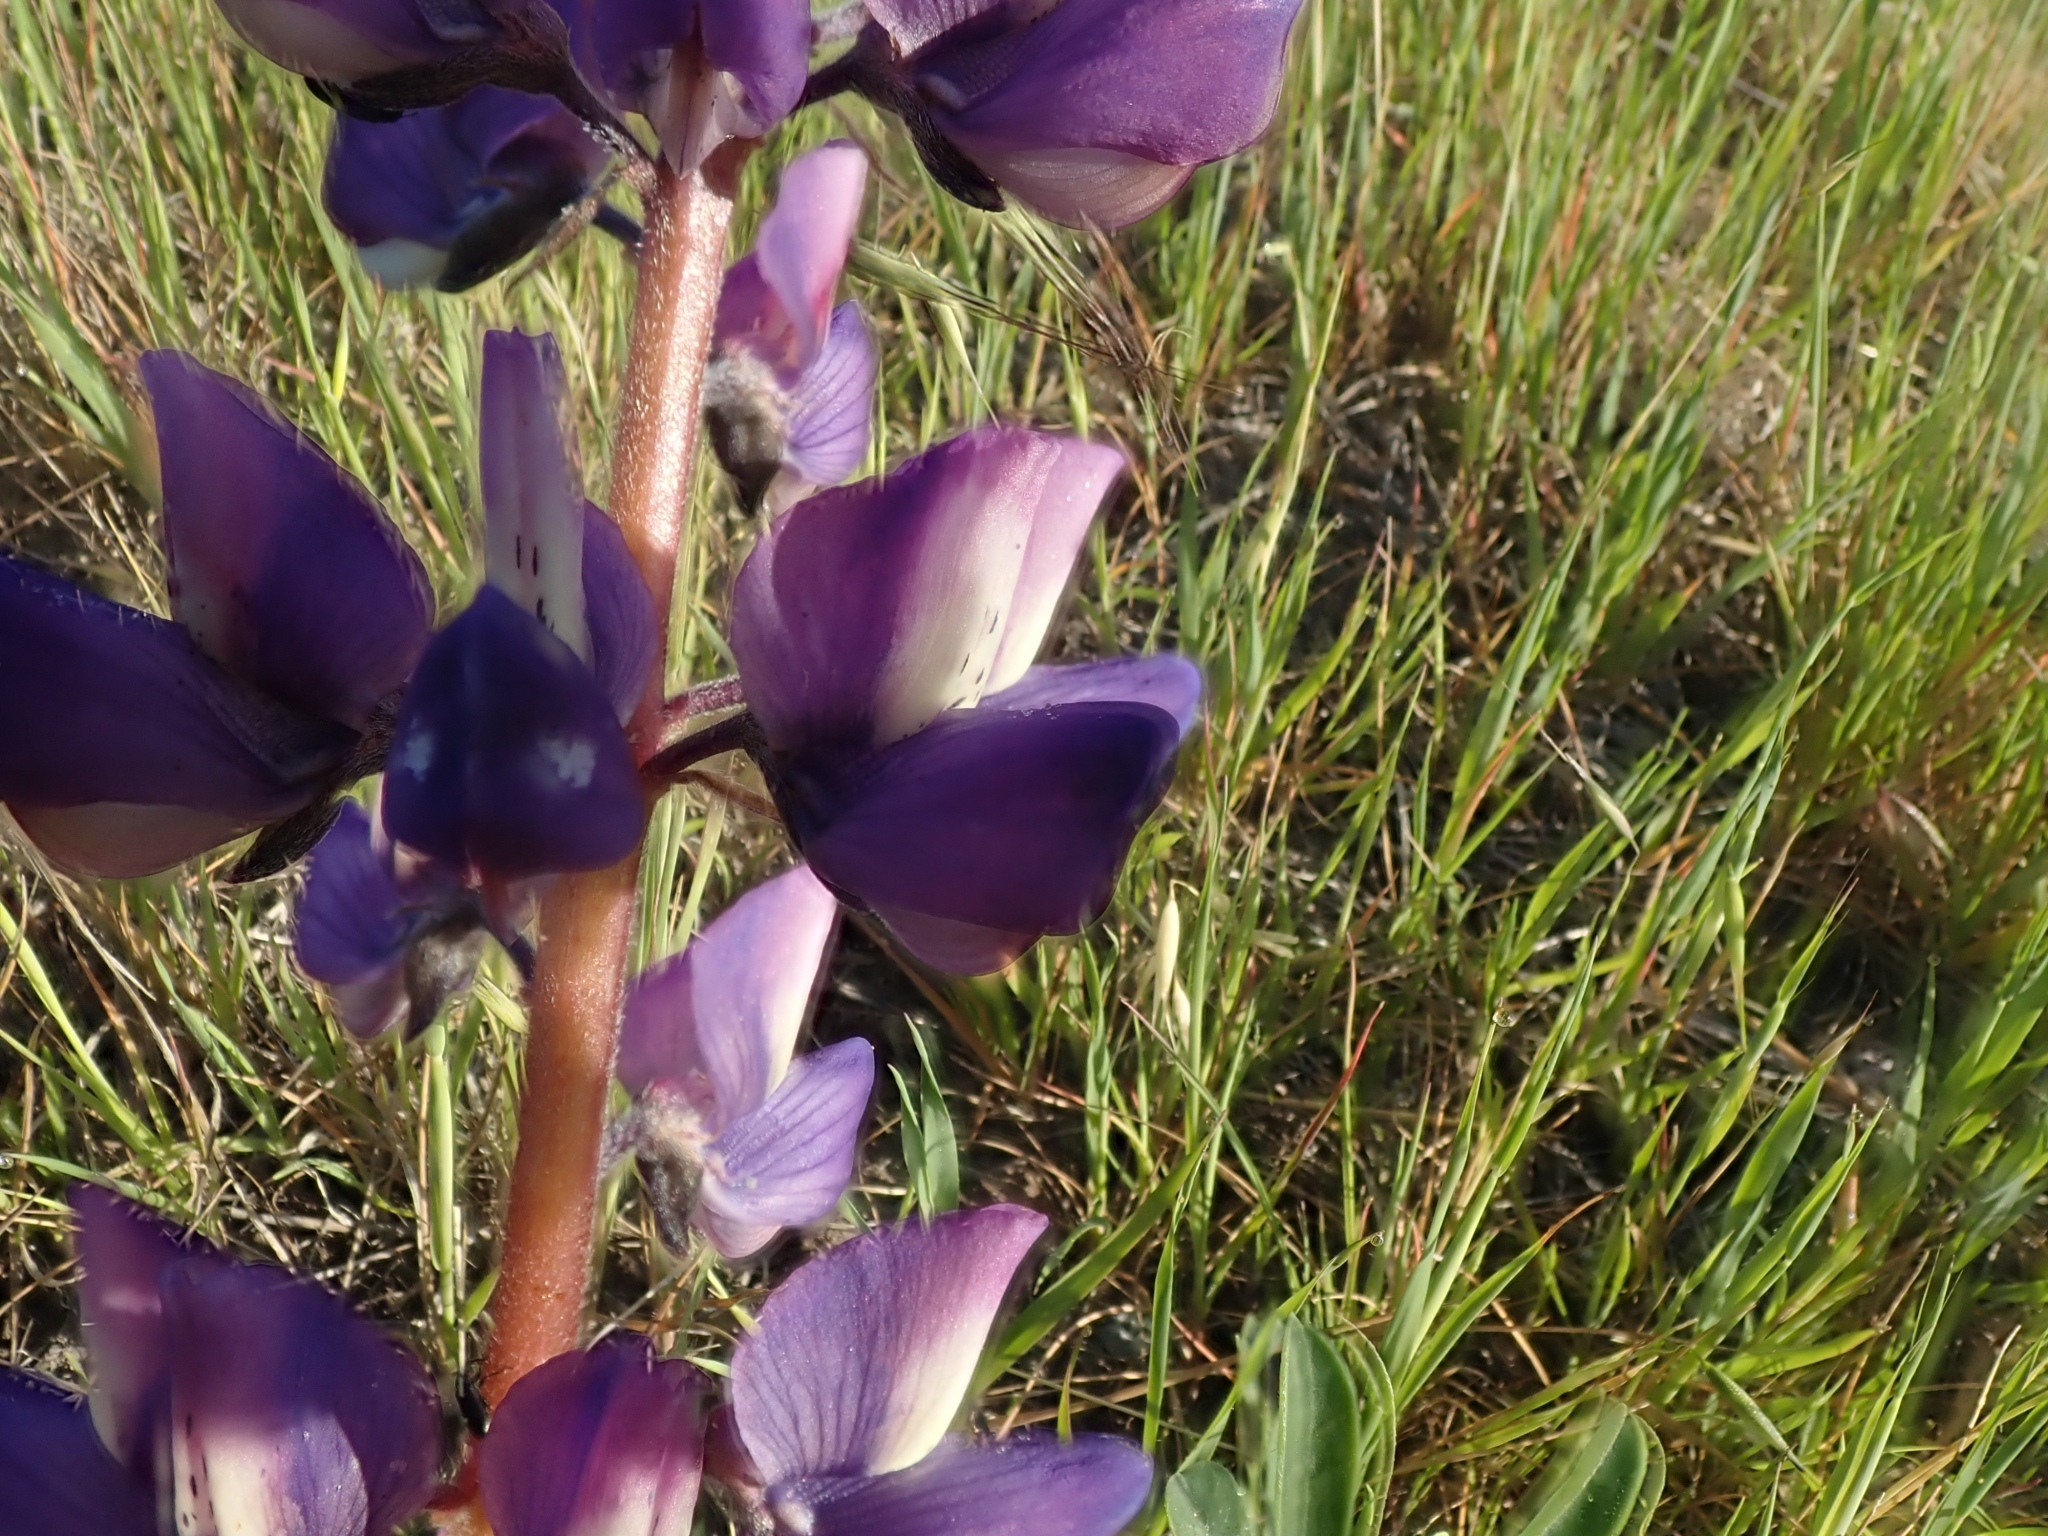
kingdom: Plantae
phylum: Tracheophyta
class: Magnoliopsida
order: Fabales
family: Fabaceae
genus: Lupinus
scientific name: Lupinus succulentus
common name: Arroyo lupine
